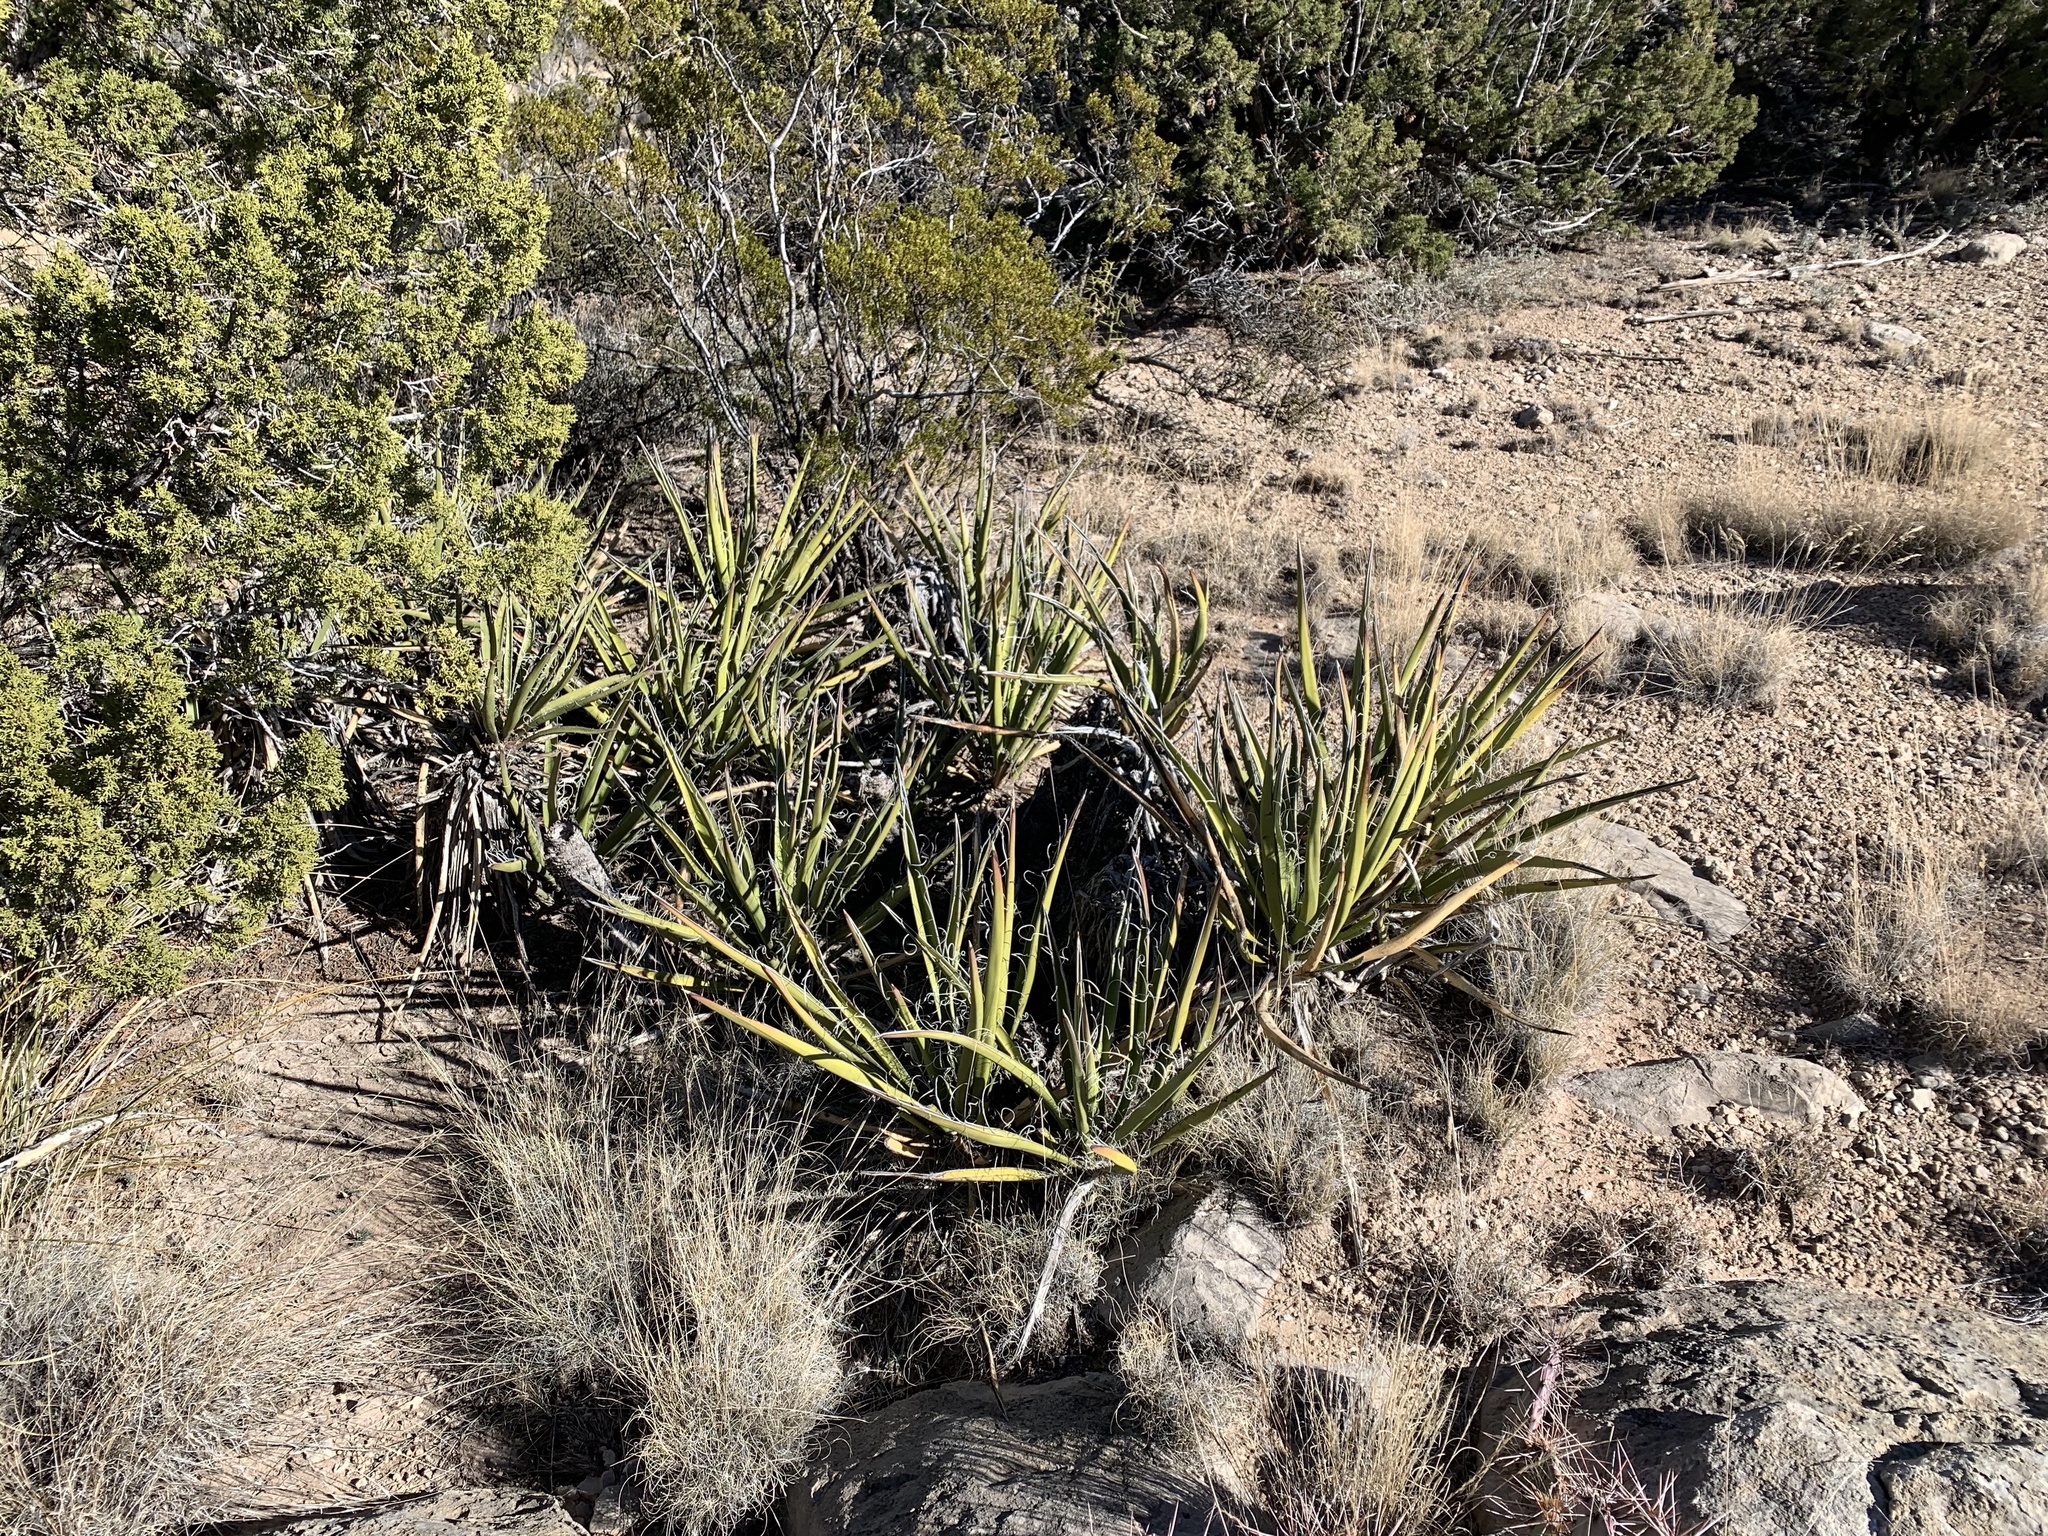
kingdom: Plantae
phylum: Tracheophyta
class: Liliopsida
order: Asparagales
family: Asparagaceae
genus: Yucca
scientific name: Yucca baccata
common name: Banana yucca
